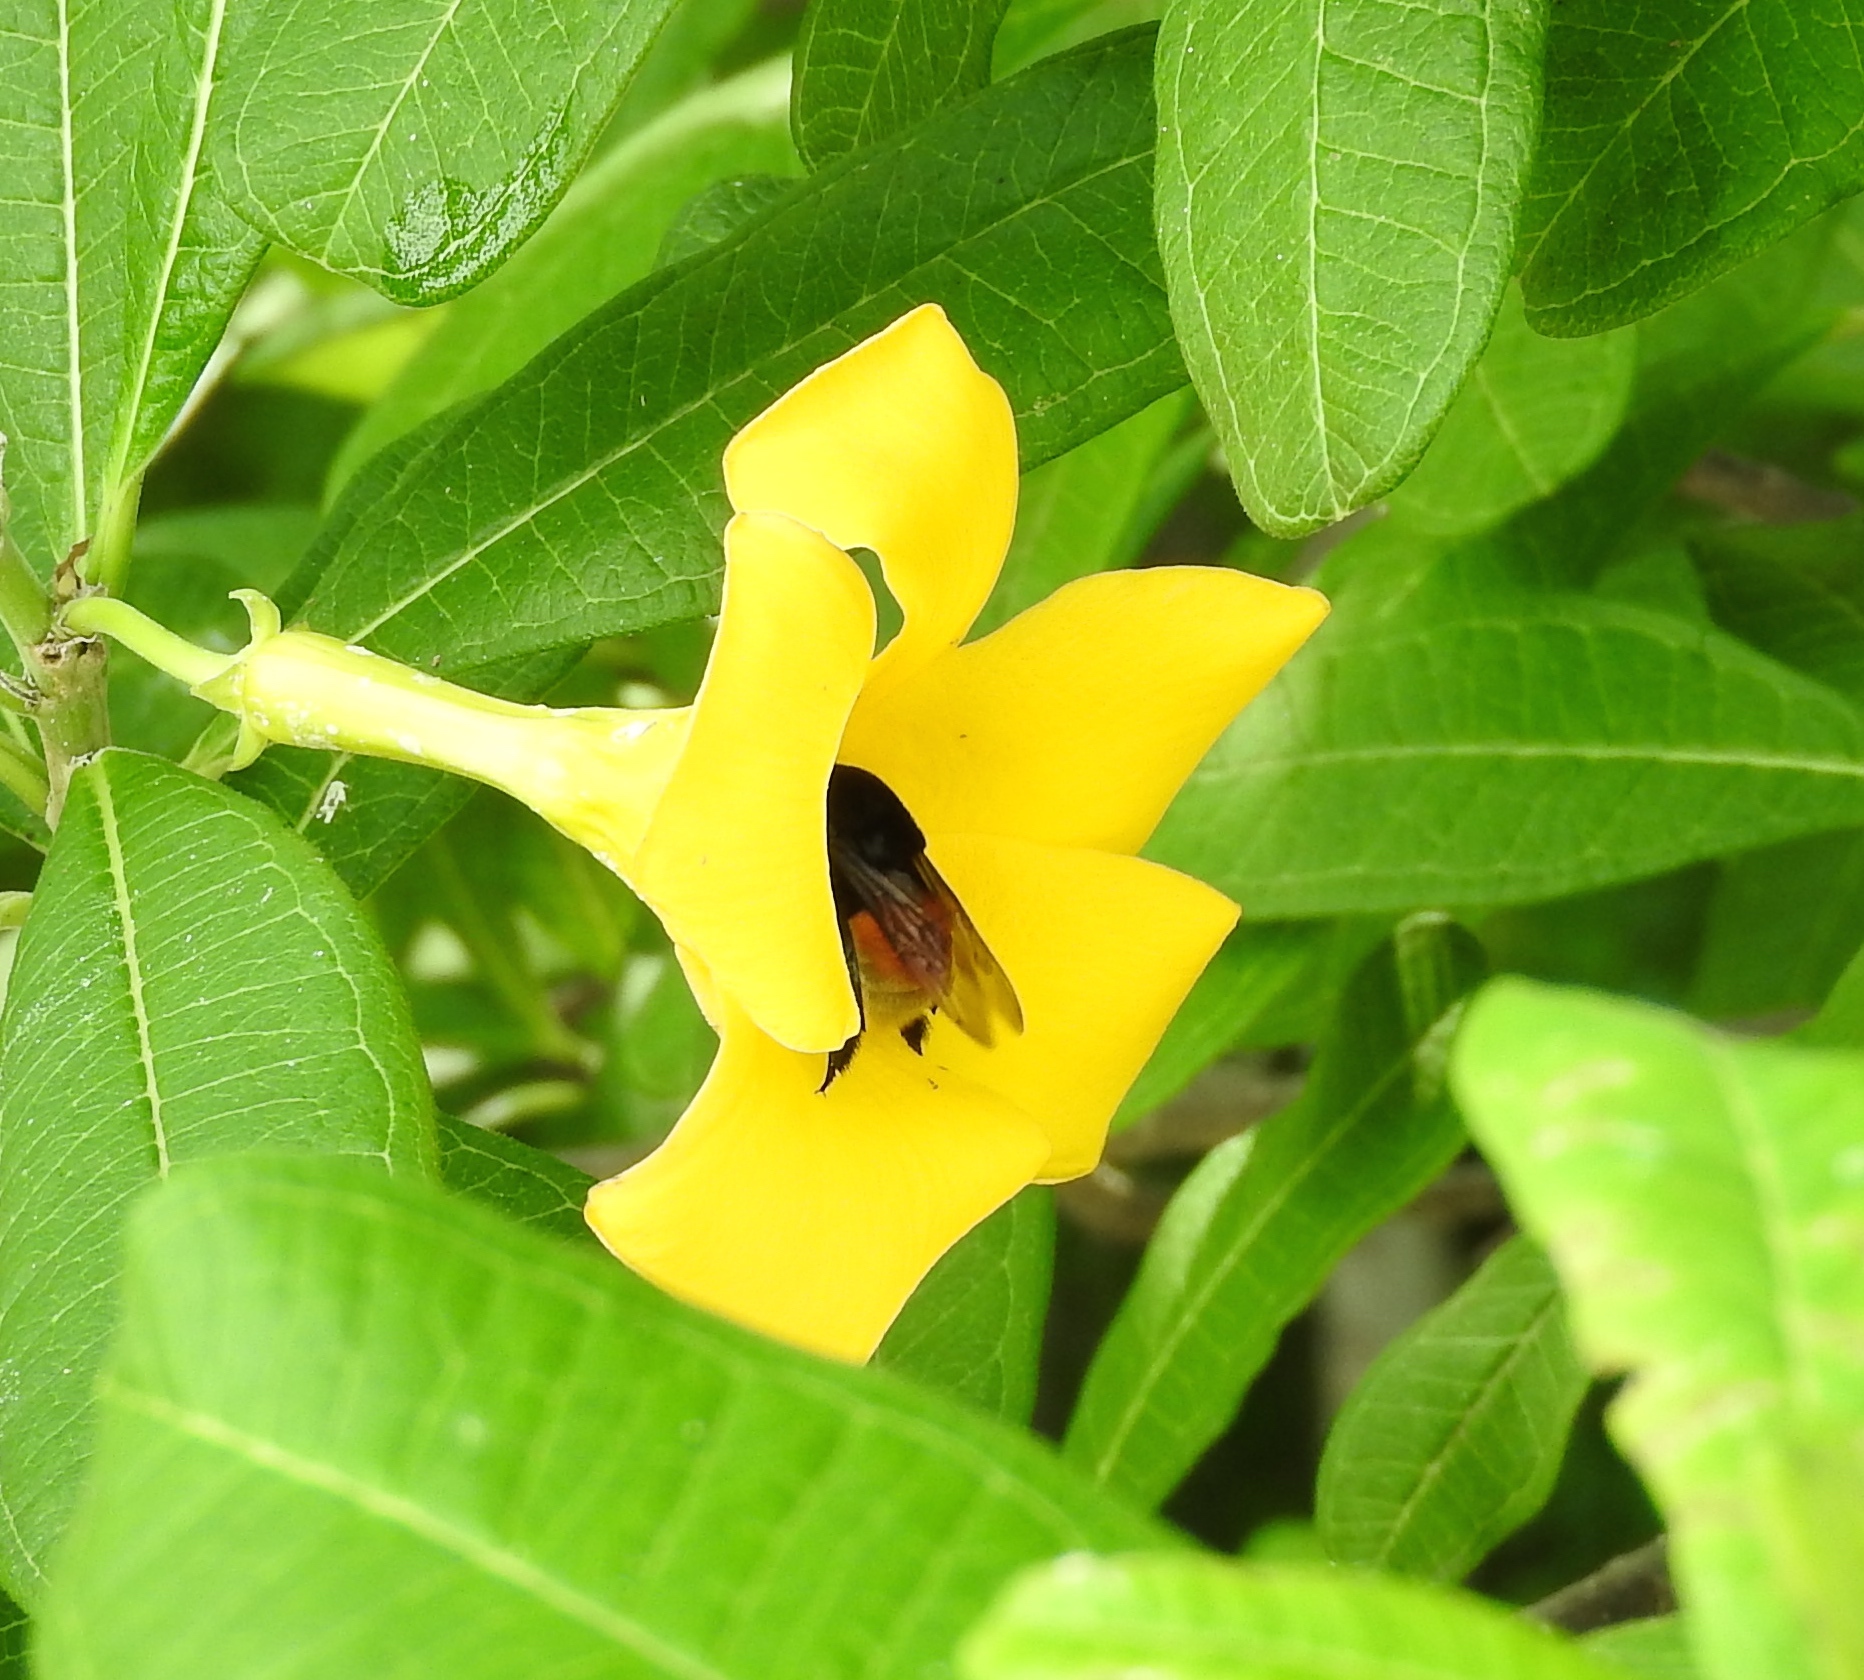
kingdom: Plantae
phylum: Tracheophyta
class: Magnoliopsida
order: Gentianales
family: Apocynaceae
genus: Cascabela
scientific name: Cascabela ovata
